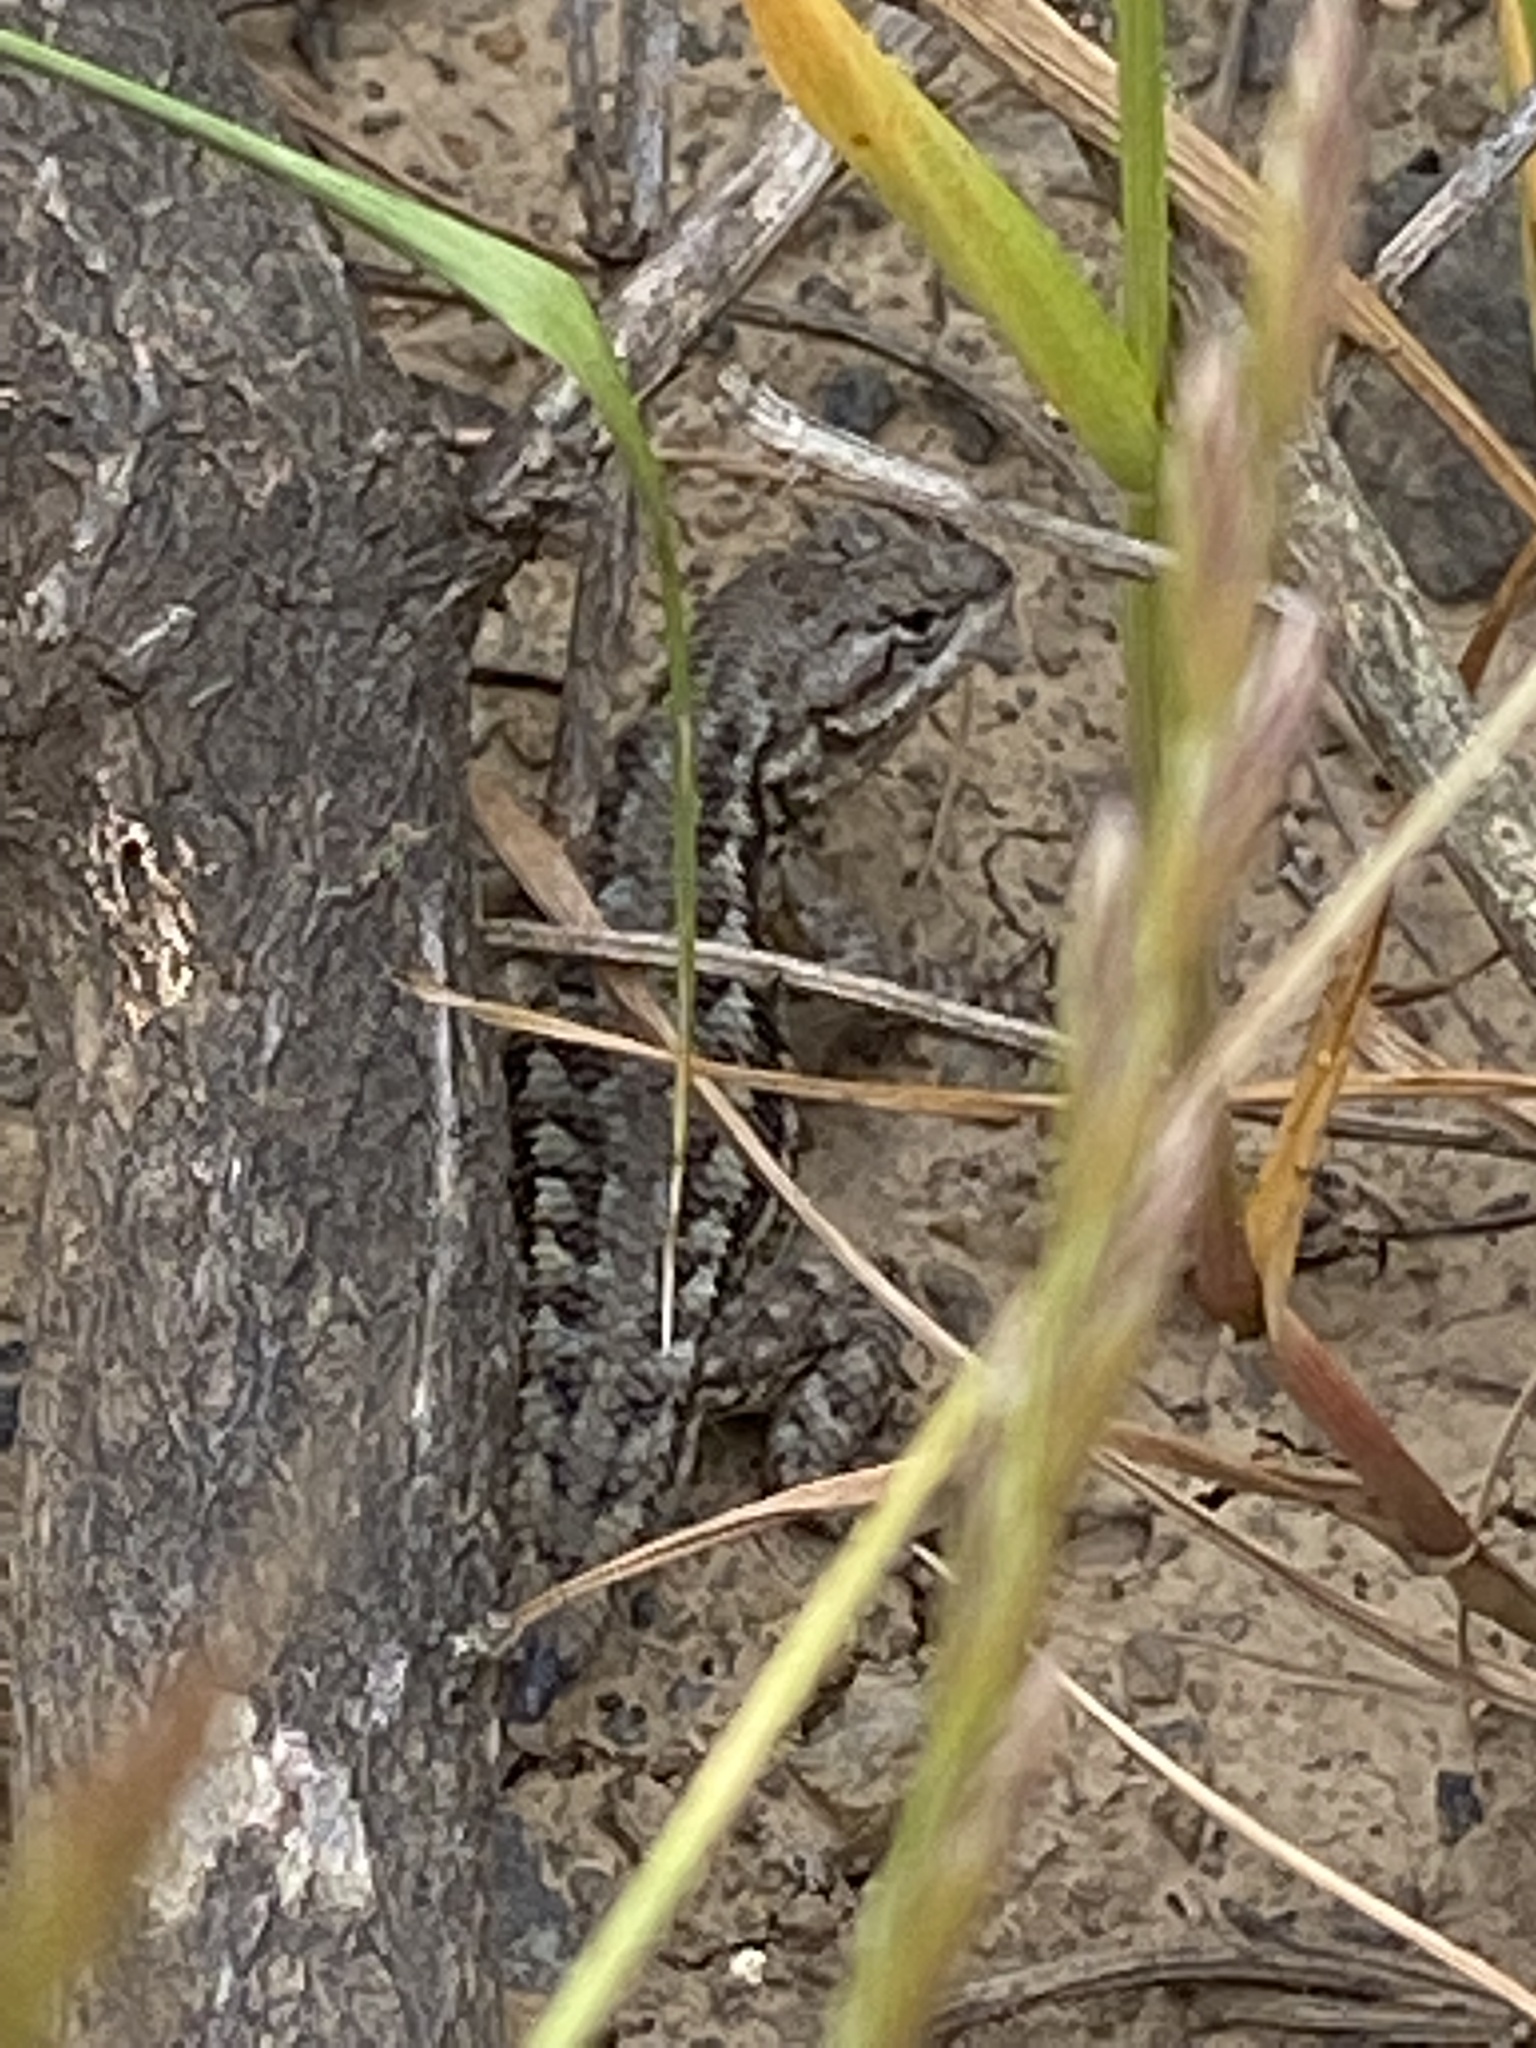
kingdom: Animalia
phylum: Chordata
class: Squamata
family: Phrynosomatidae
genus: Sceloporus
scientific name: Sceloporus occidentalis
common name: Western fence lizard
